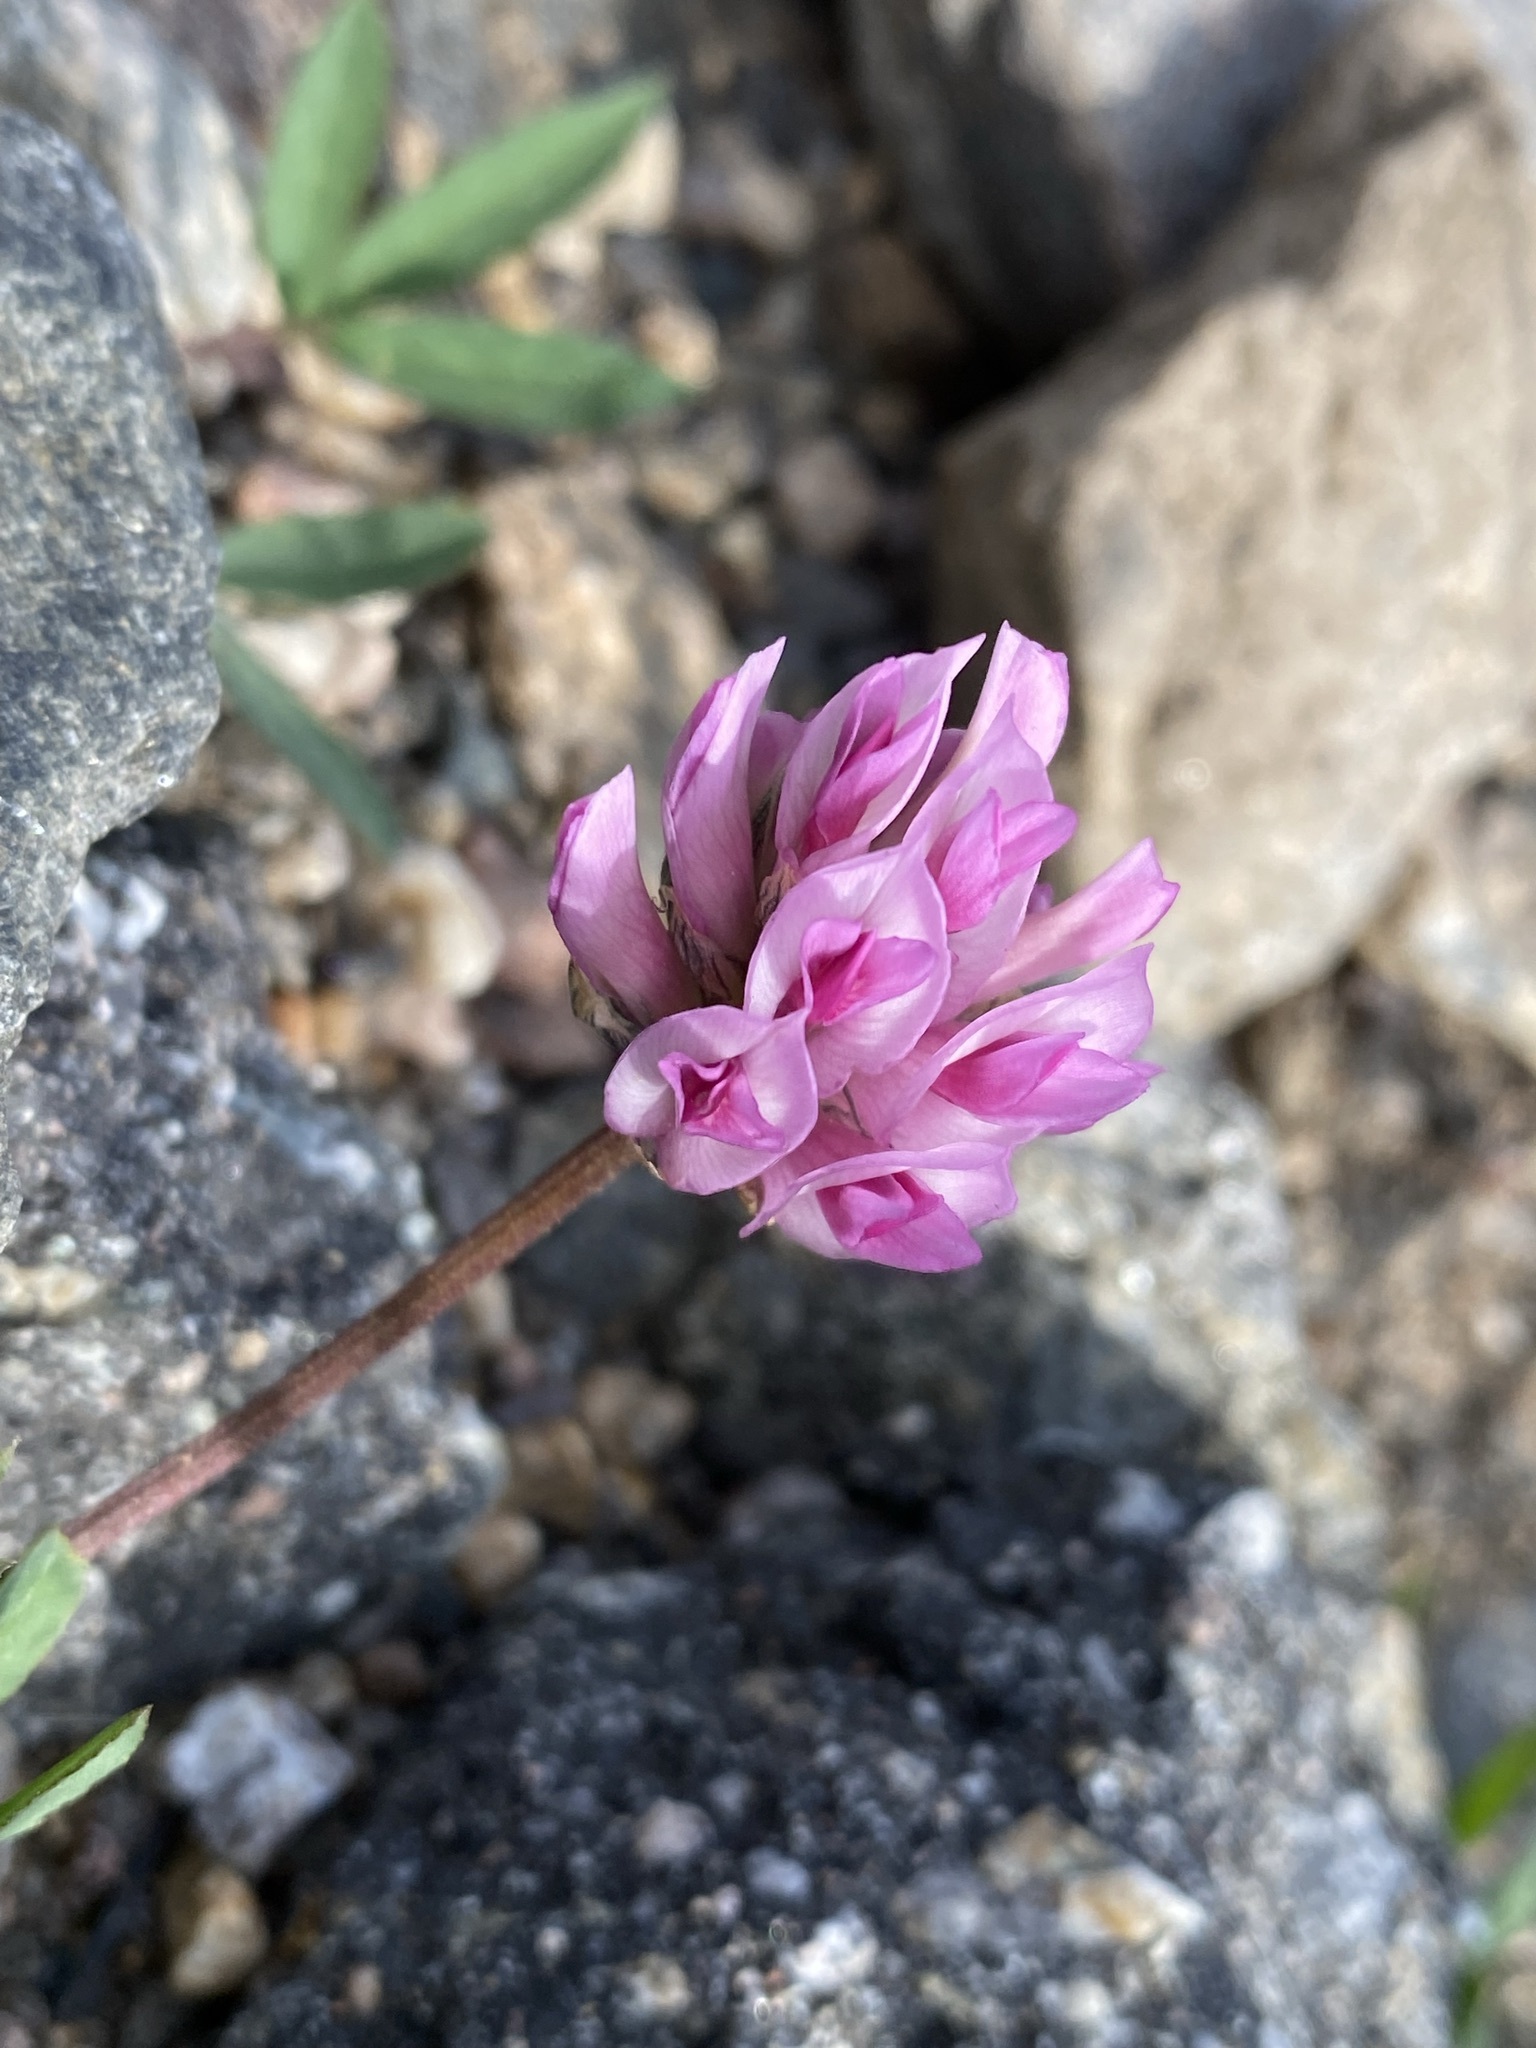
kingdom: Plantae
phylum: Tracheophyta
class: Magnoliopsida
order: Fabales
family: Fabaceae
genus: Trifolium
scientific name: Trifolium parryi
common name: Parry's clover
